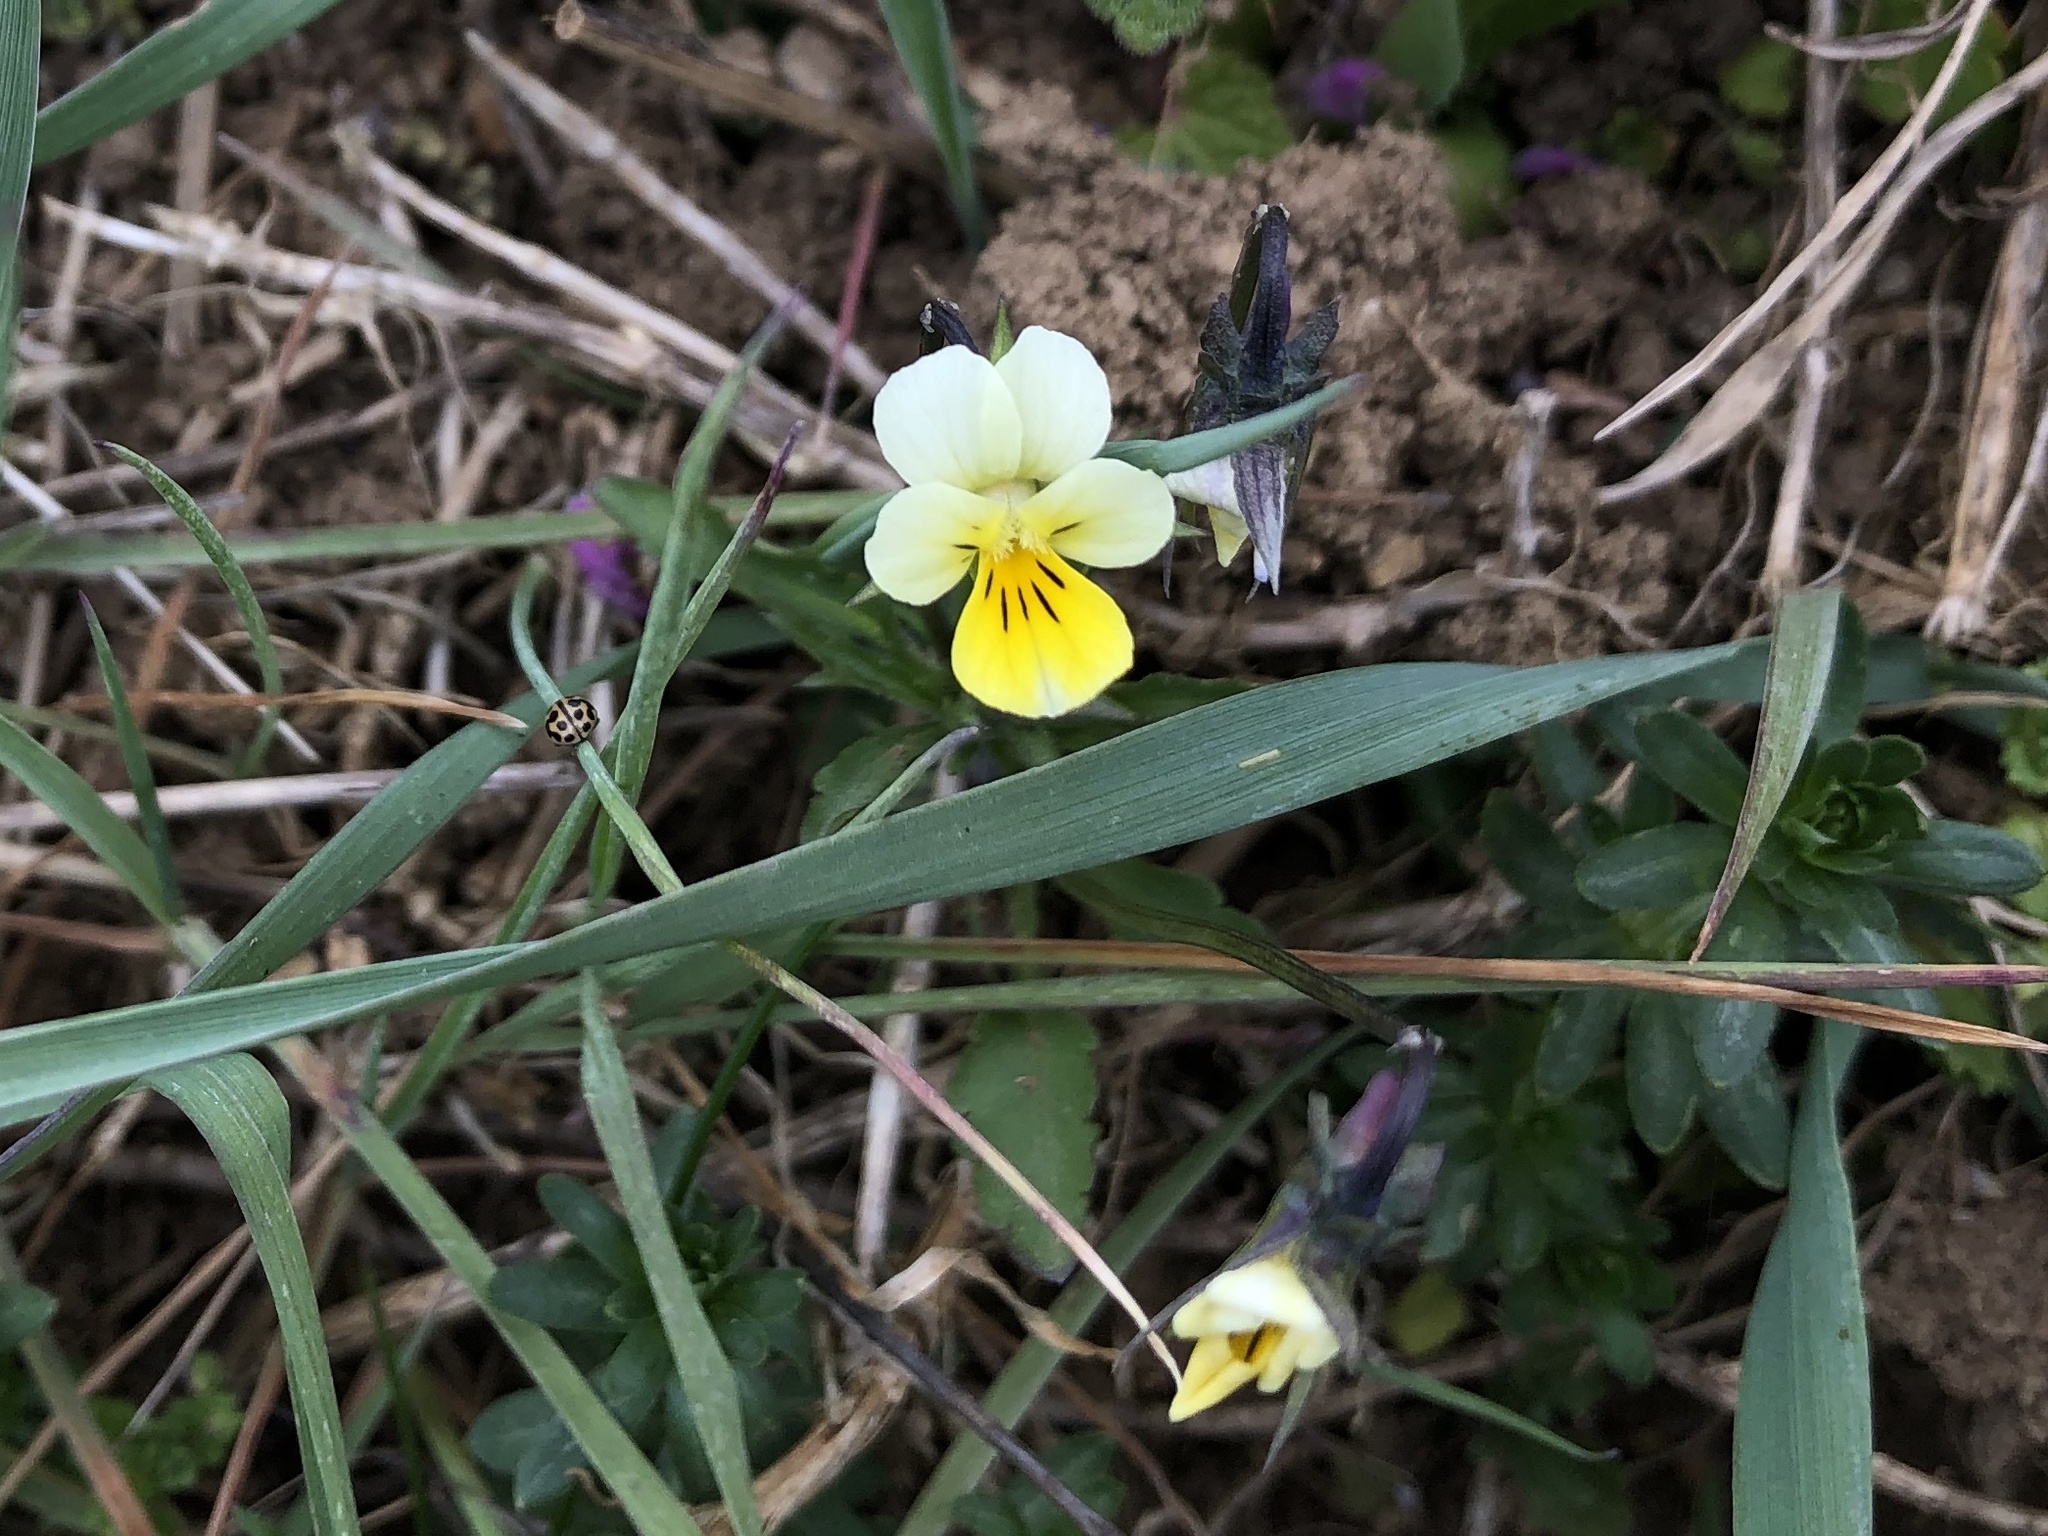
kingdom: Plantae
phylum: Tracheophyta
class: Magnoliopsida
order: Malpighiales
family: Violaceae
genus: Viola
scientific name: Viola arvensis
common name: Field pansy
